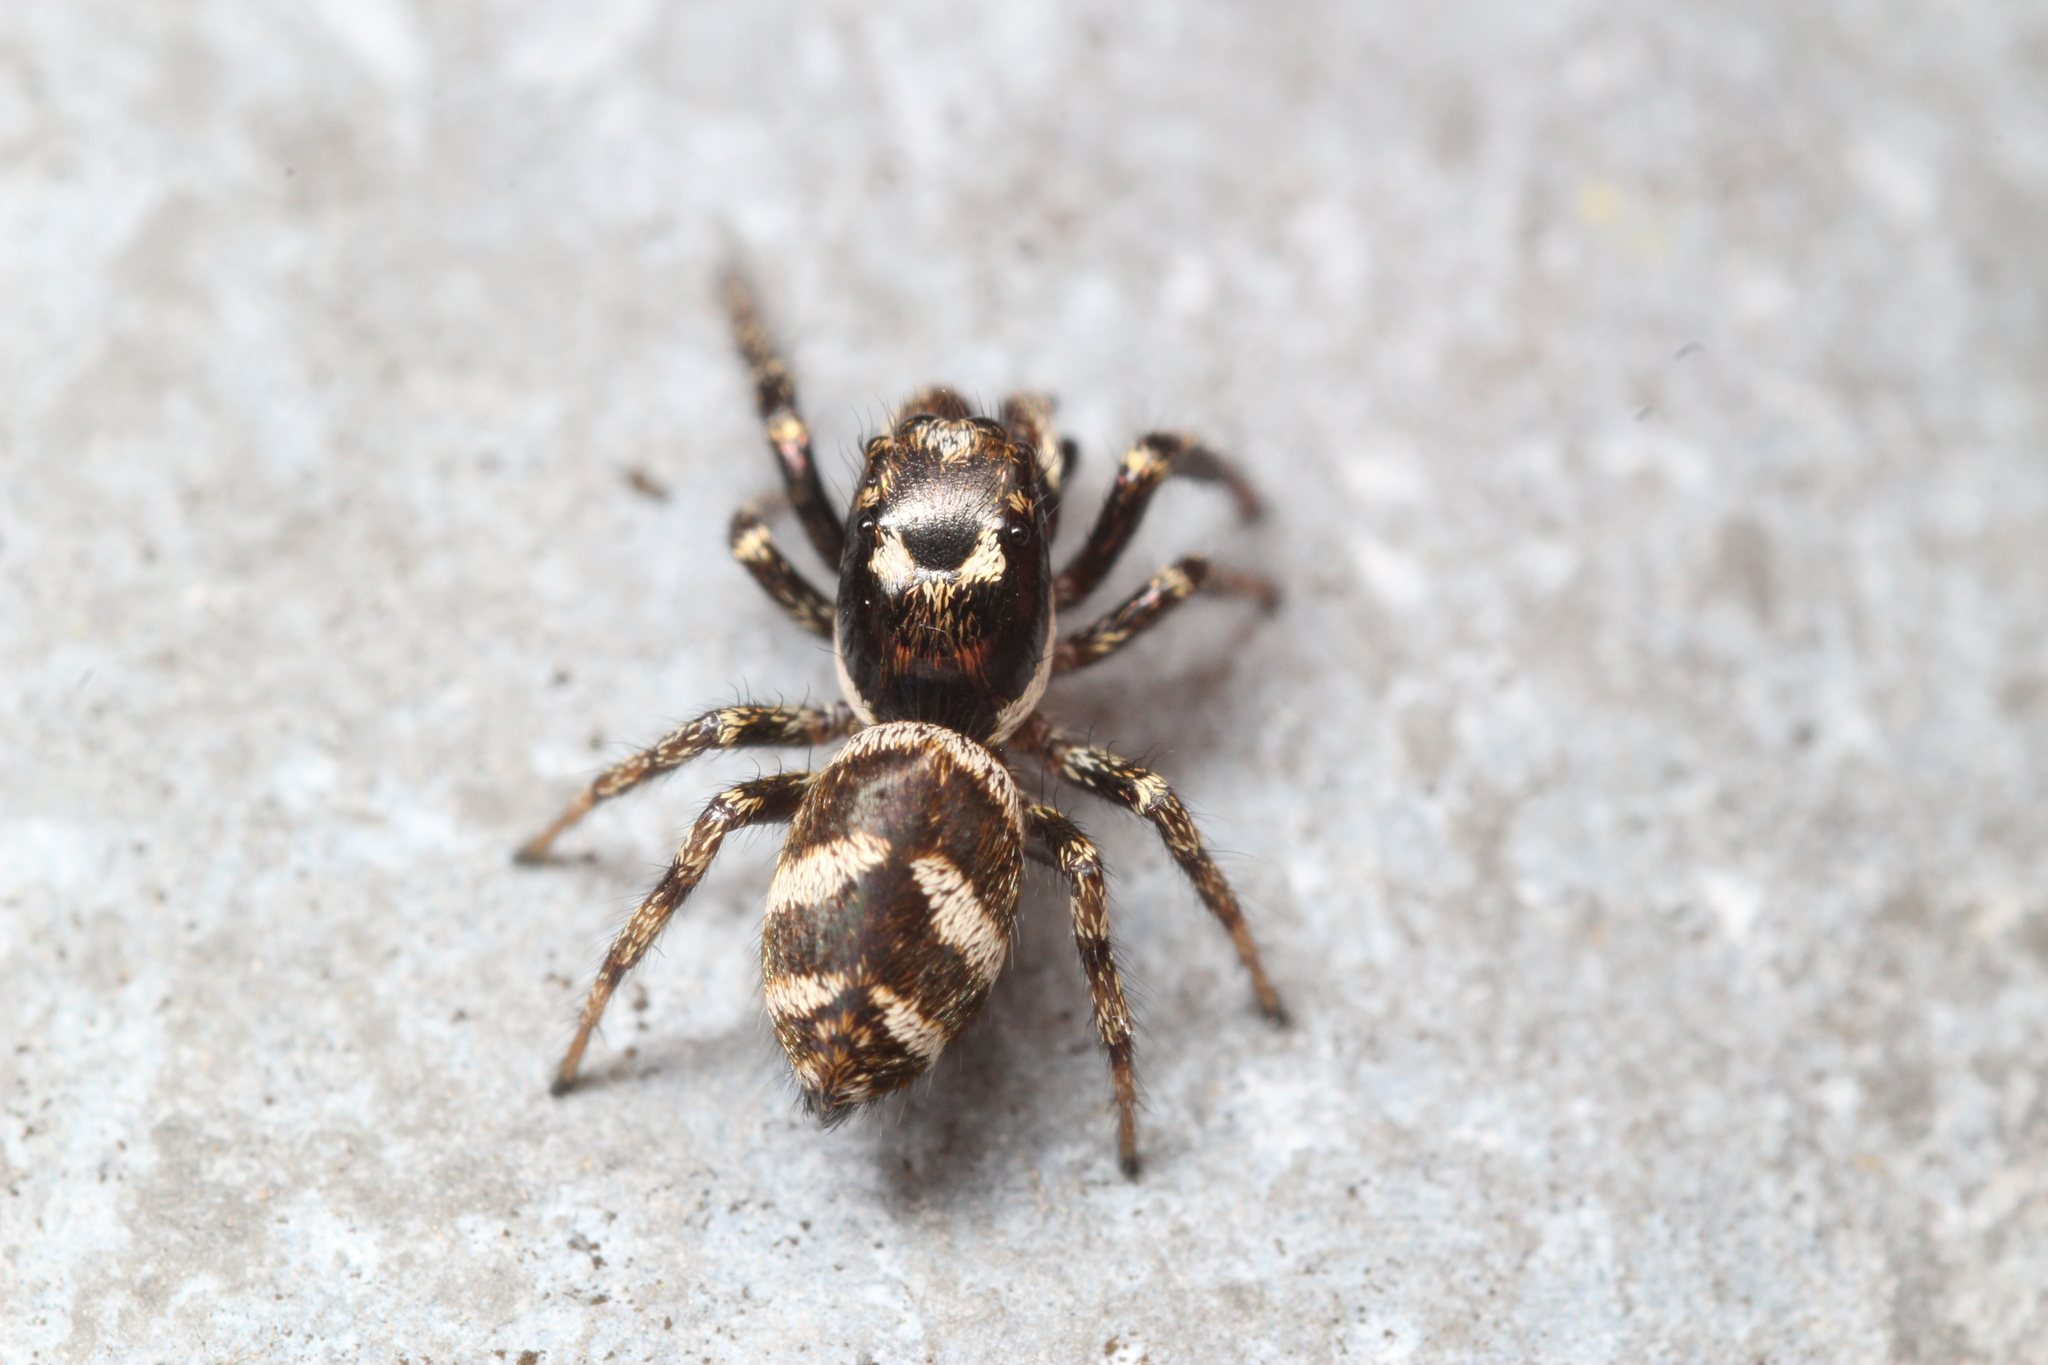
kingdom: Animalia
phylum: Arthropoda
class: Arachnida
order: Araneae
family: Salticidae
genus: Salticus
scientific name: Salticus scenicus
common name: Zebra jumper
